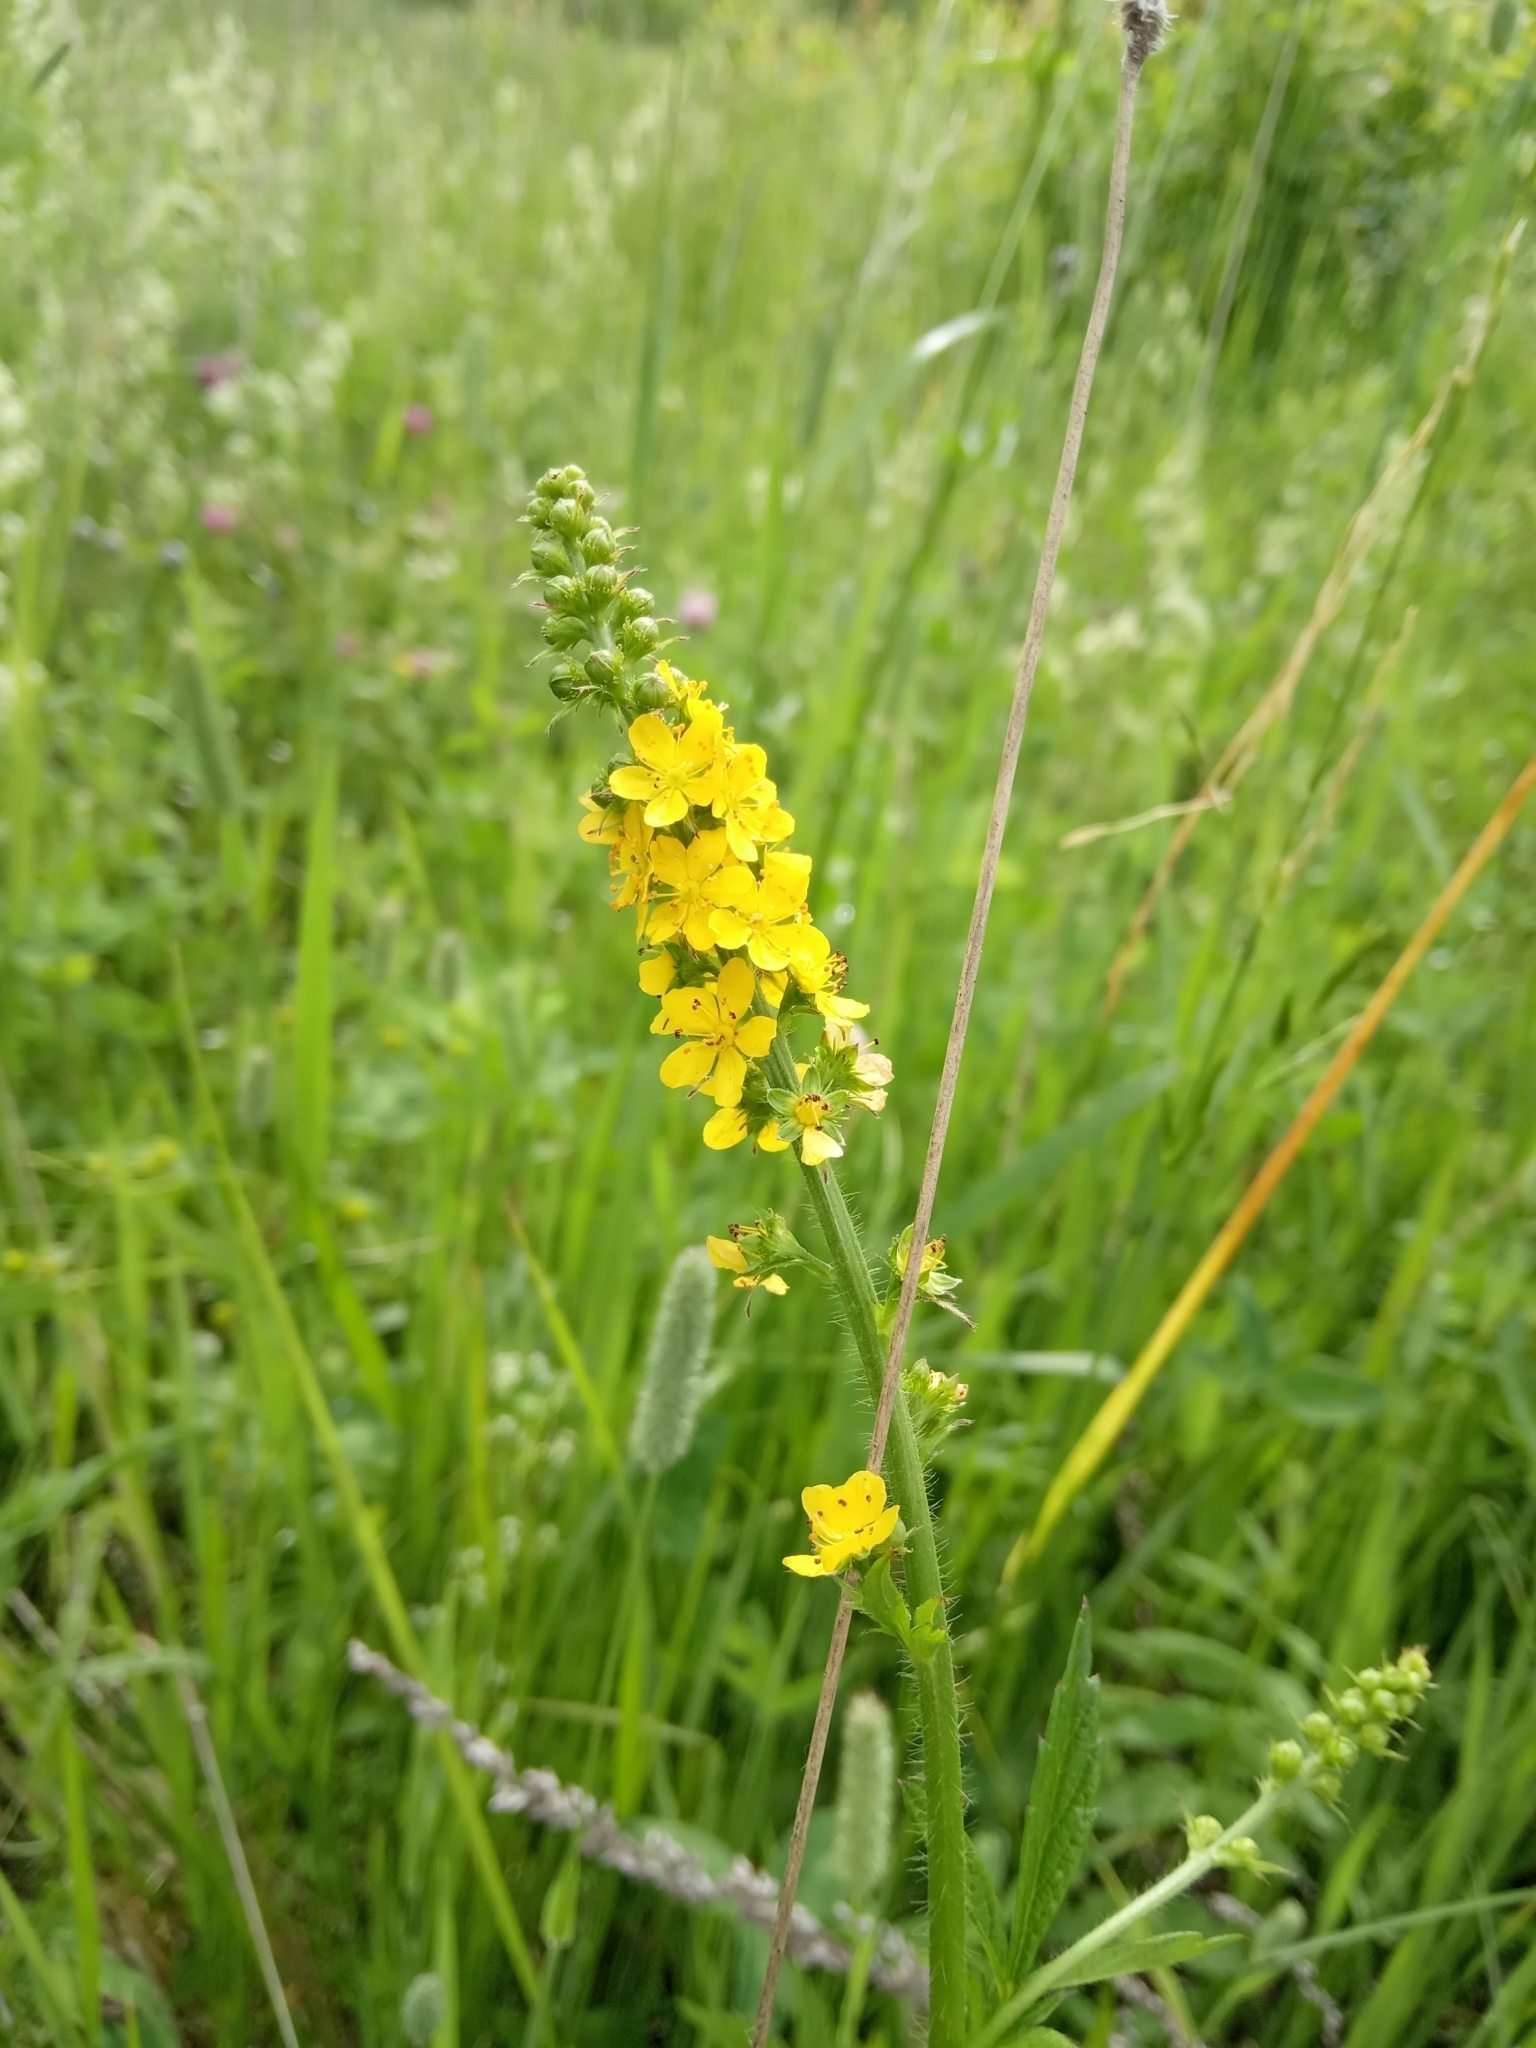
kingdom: Plantae
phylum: Tracheophyta
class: Magnoliopsida
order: Rosales
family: Rosaceae
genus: Agrimonia
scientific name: Agrimonia pilosa
